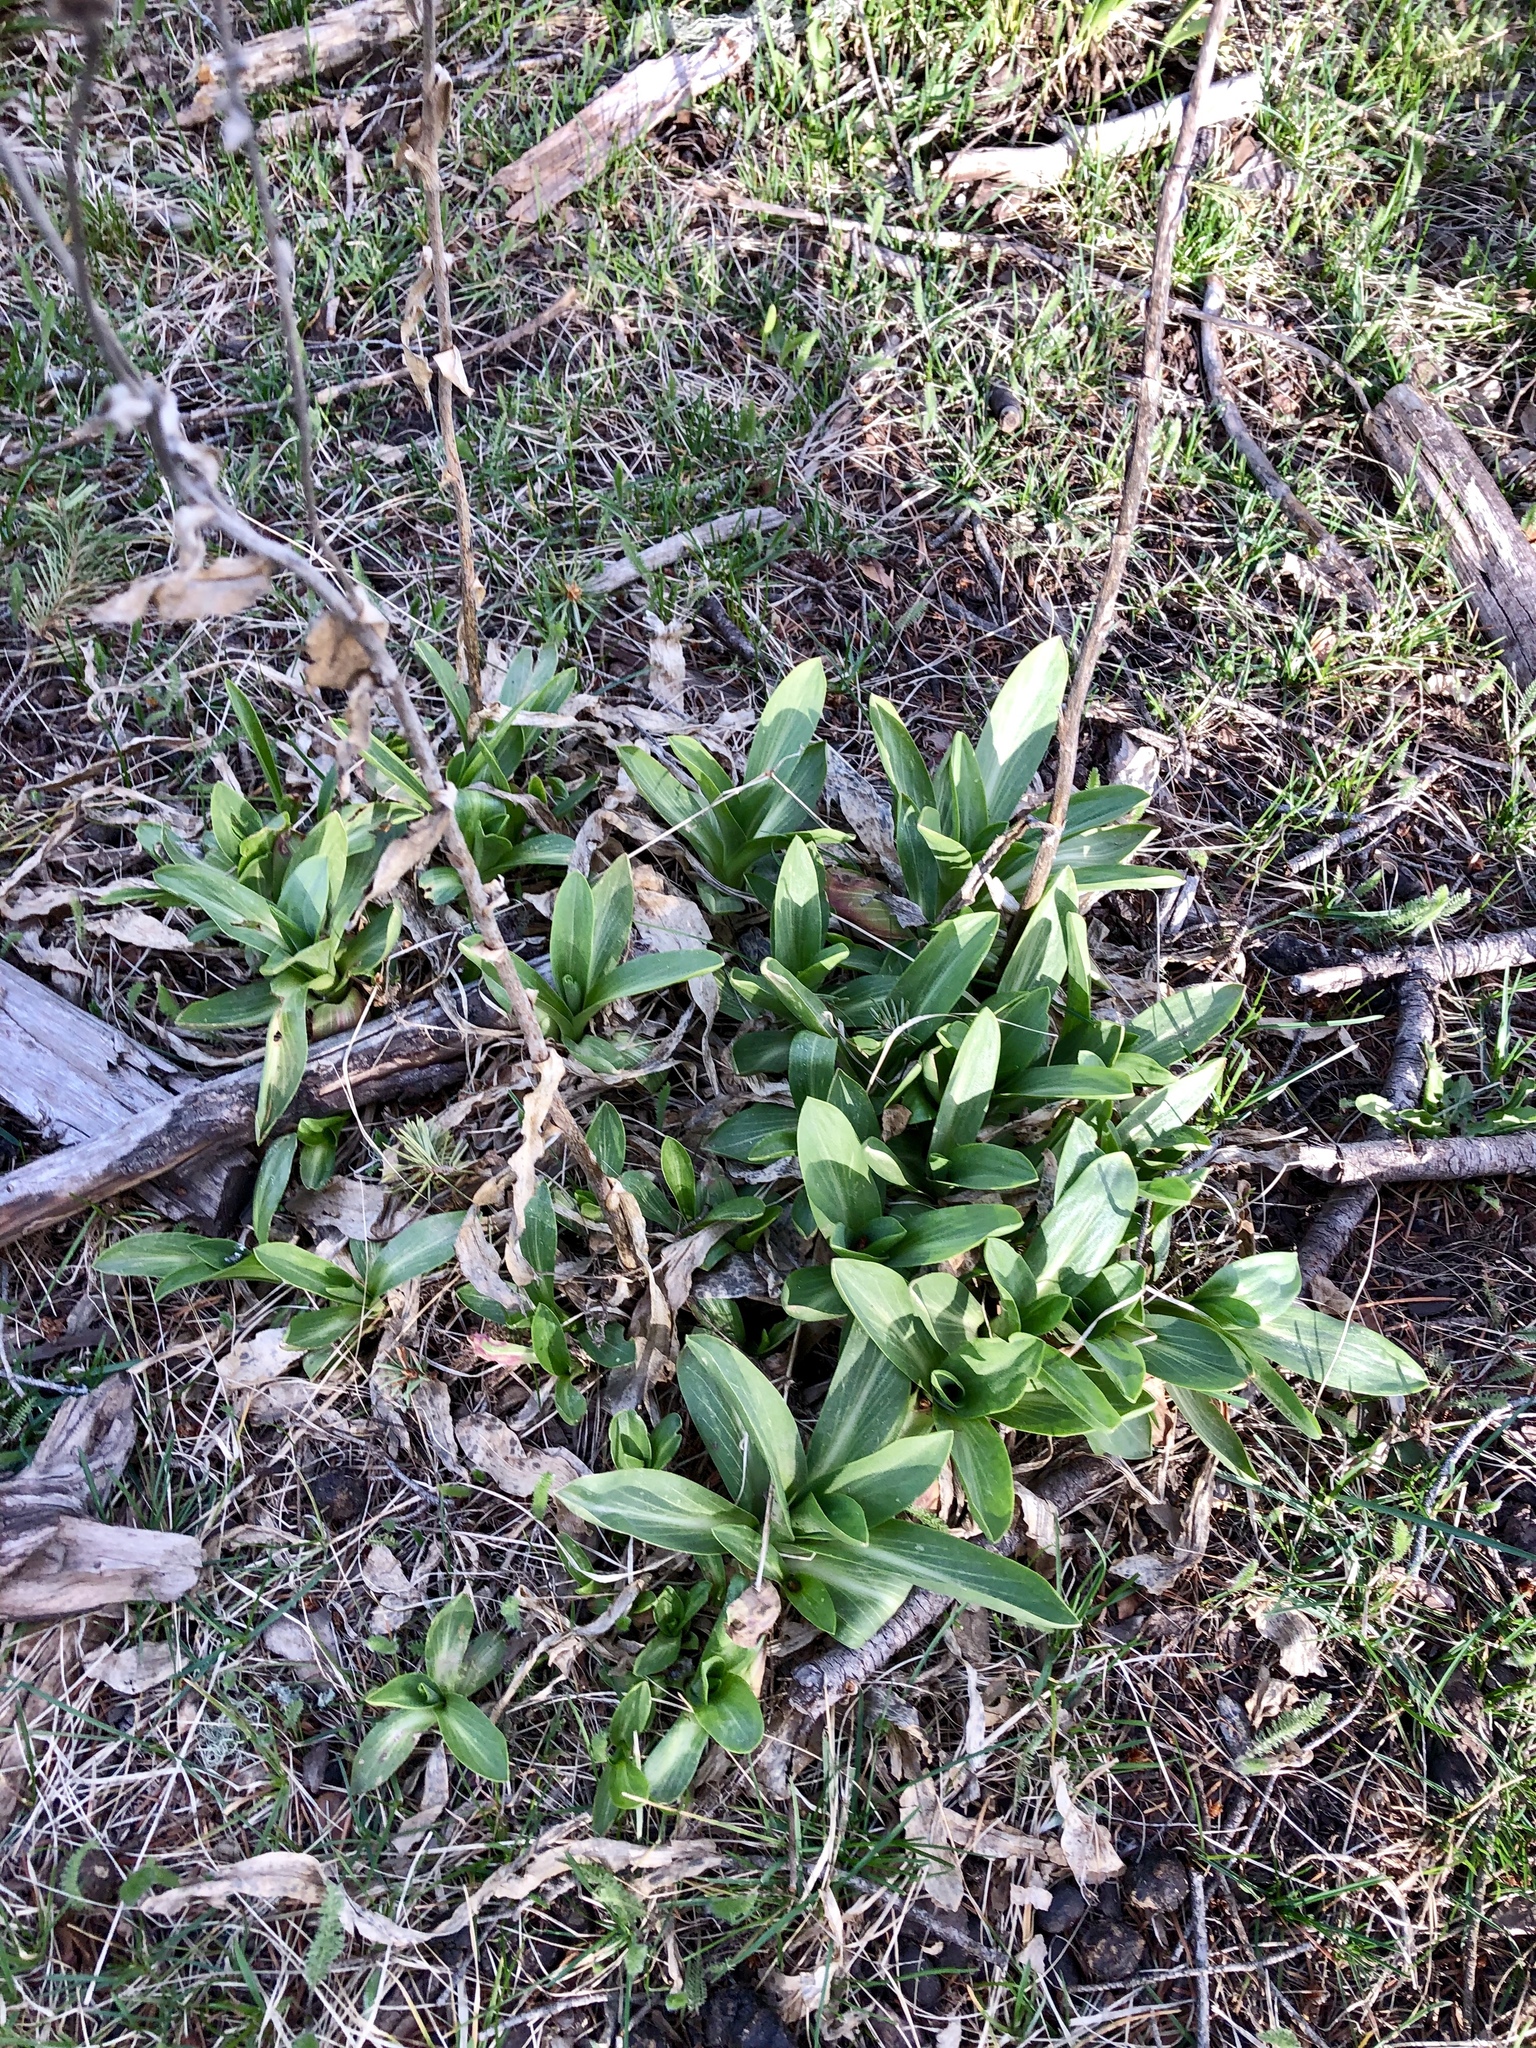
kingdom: Plantae
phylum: Tracheophyta
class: Magnoliopsida
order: Asterales
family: Asteraceae
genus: Hymenoxys
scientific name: Hymenoxys hoopesii
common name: Orange-sneezeweed
